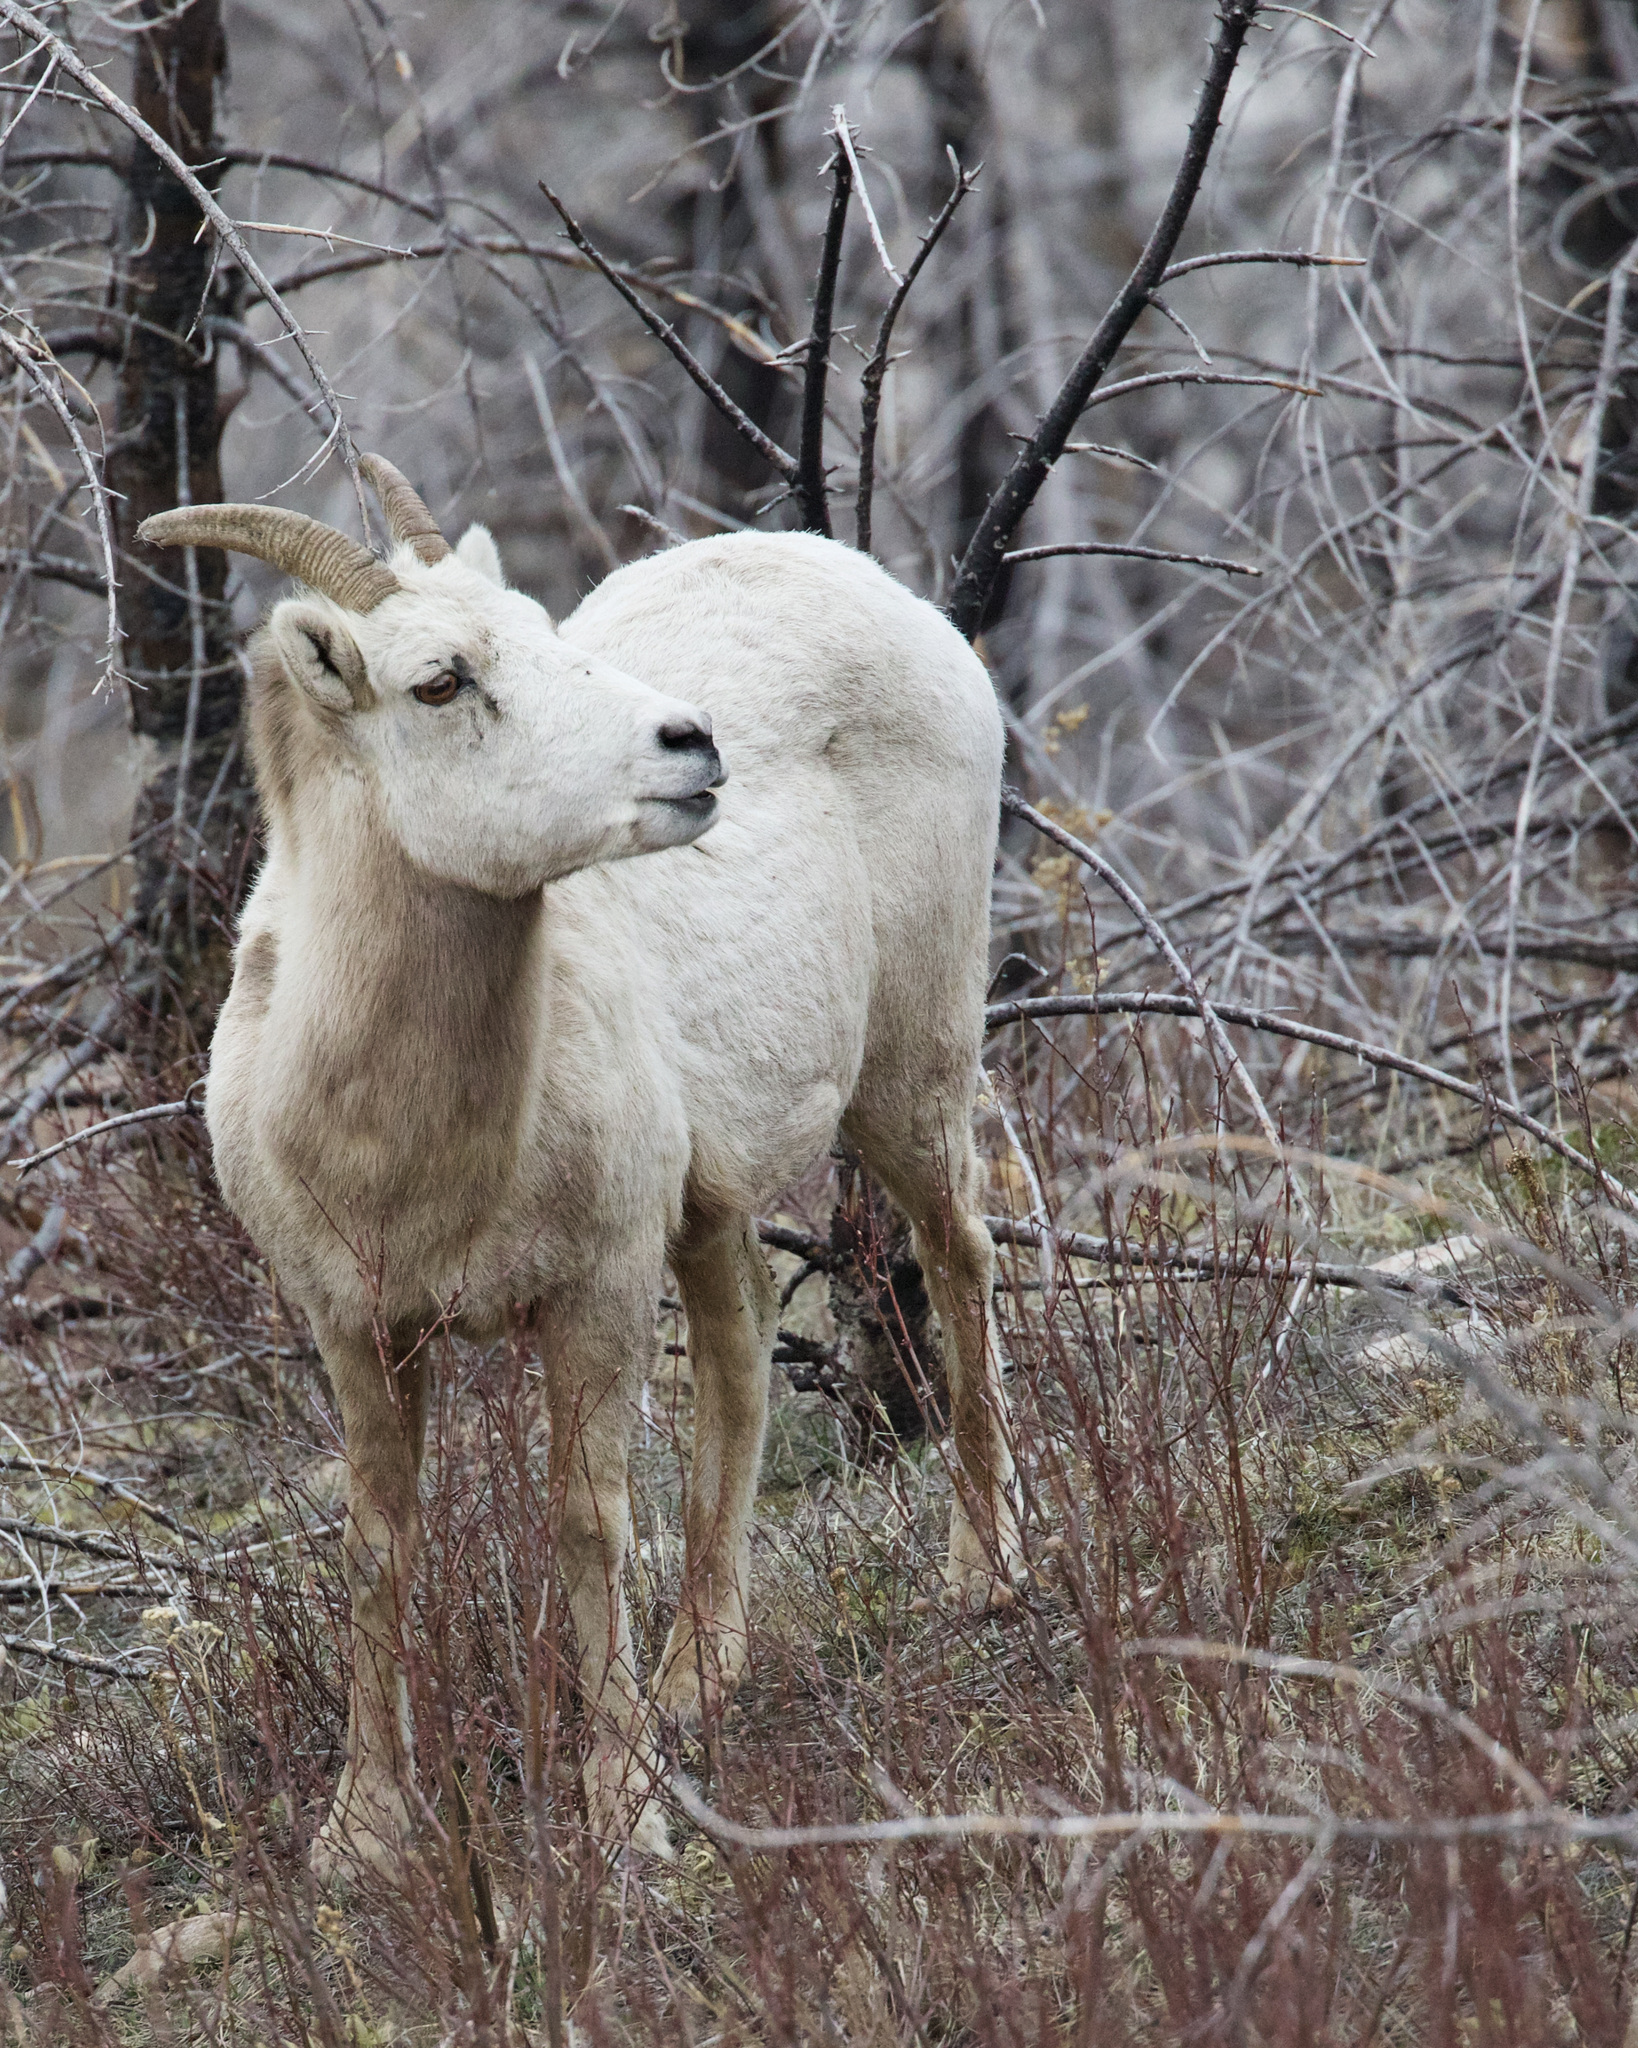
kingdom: Animalia
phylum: Chordata
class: Mammalia
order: Artiodactyla
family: Bovidae
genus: Ovis
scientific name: Ovis canadensis
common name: Bighorn sheep
